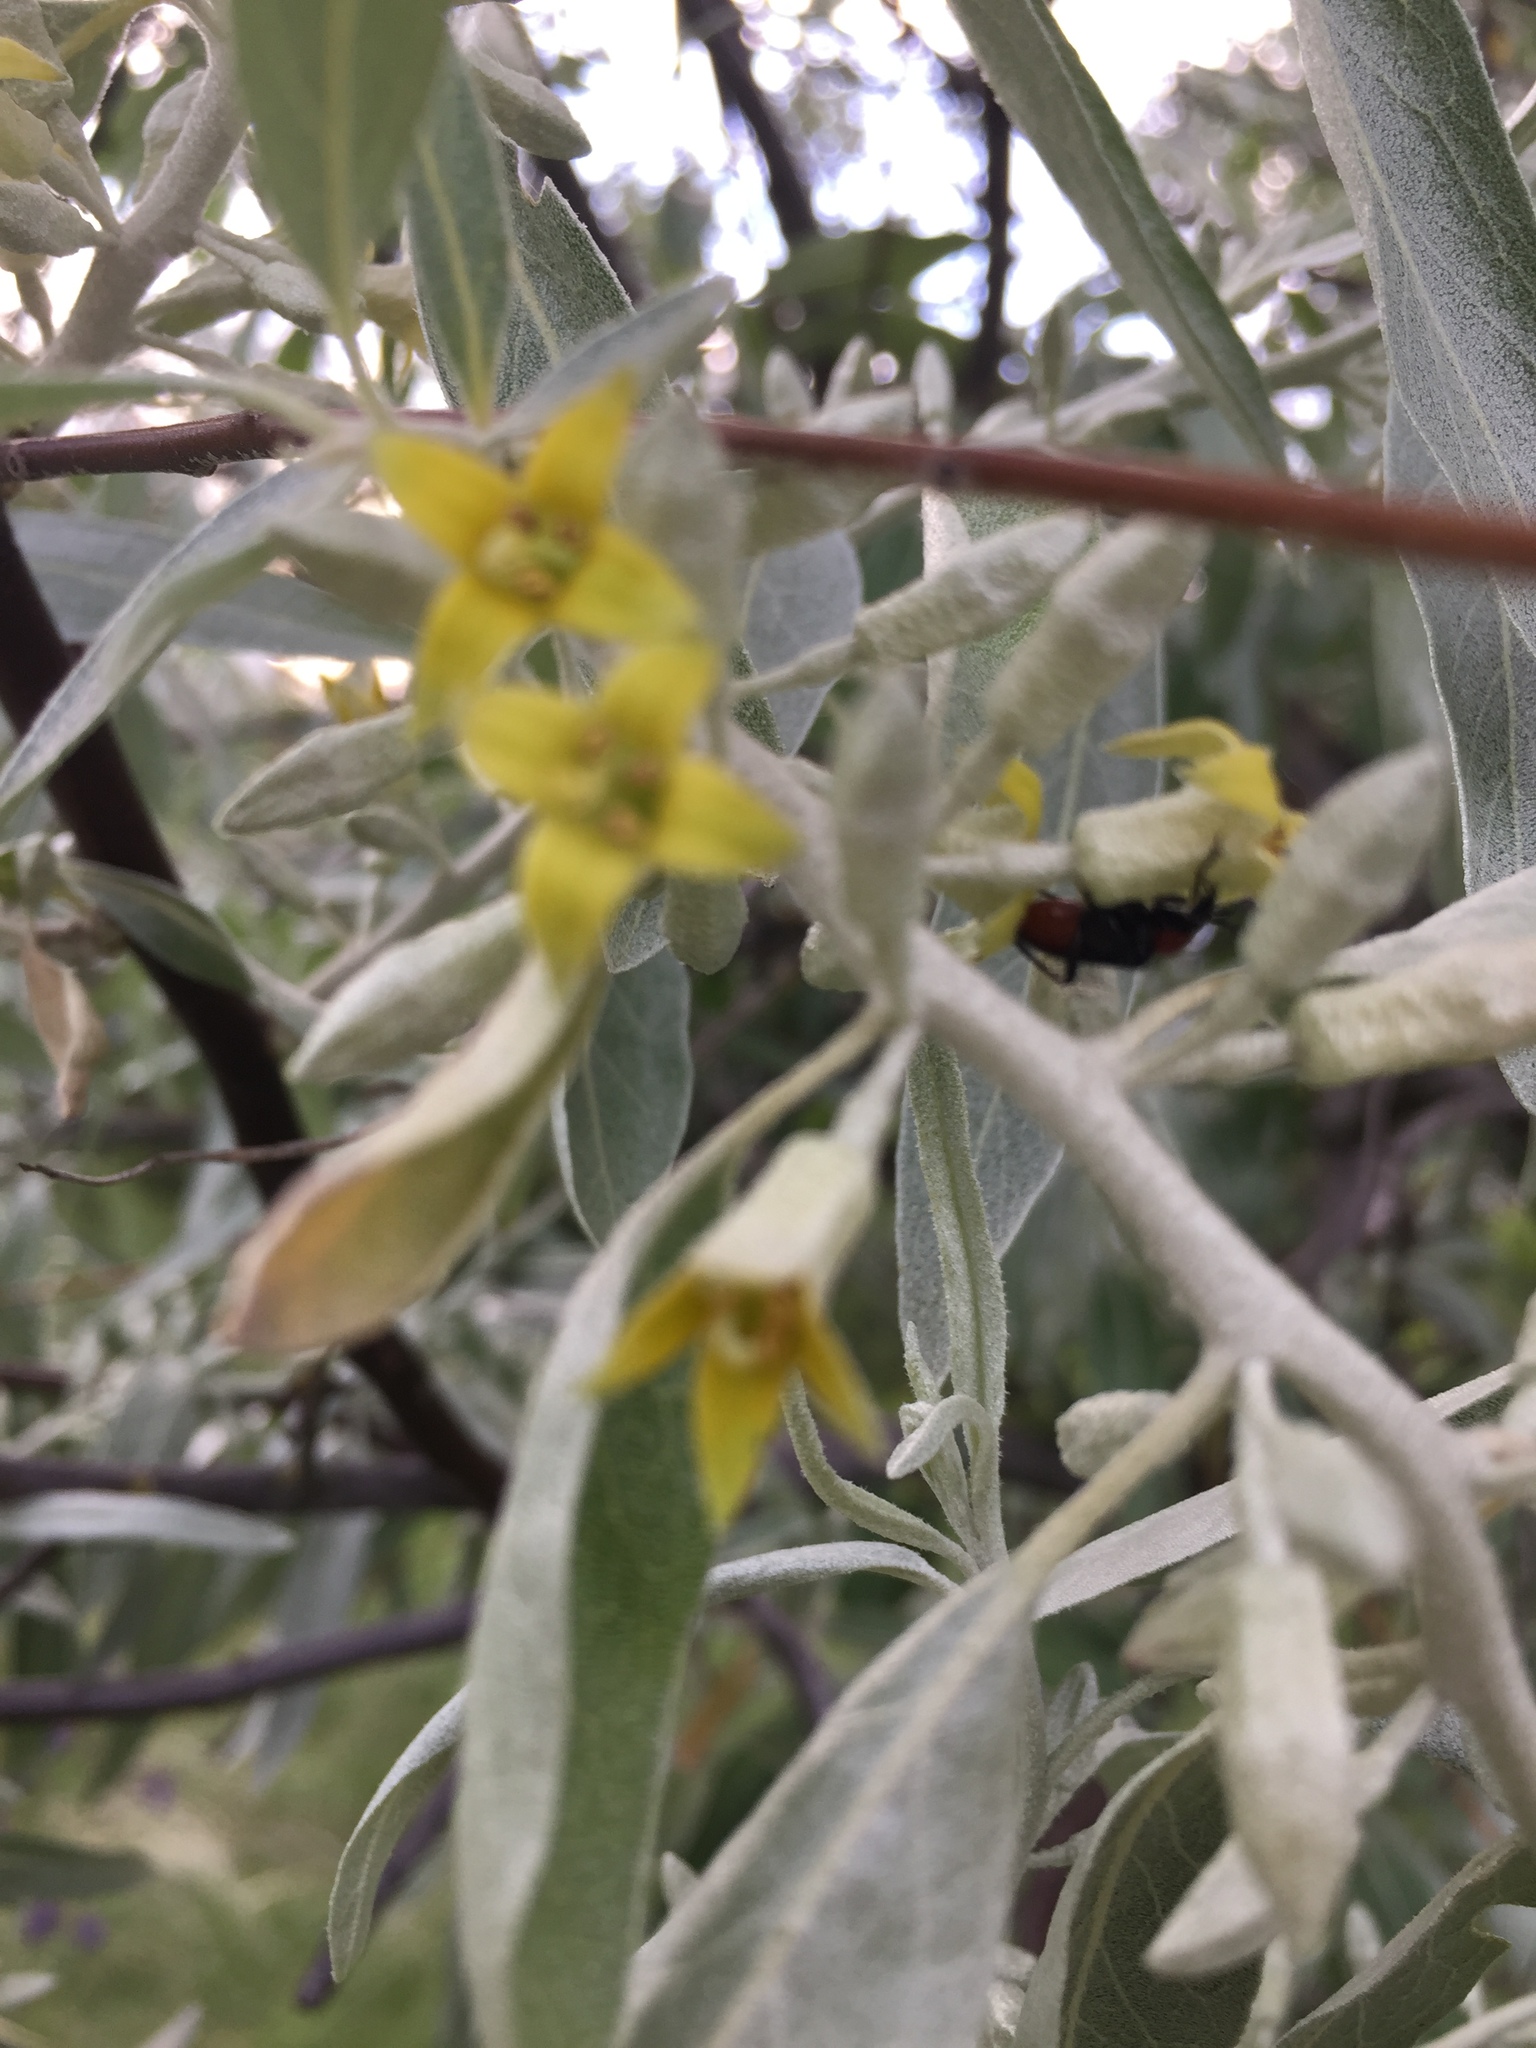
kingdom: Plantae
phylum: Tracheophyta
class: Magnoliopsida
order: Rosales
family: Elaeagnaceae
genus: Elaeagnus
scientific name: Elaeagnus angustifolia
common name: Russian olive
